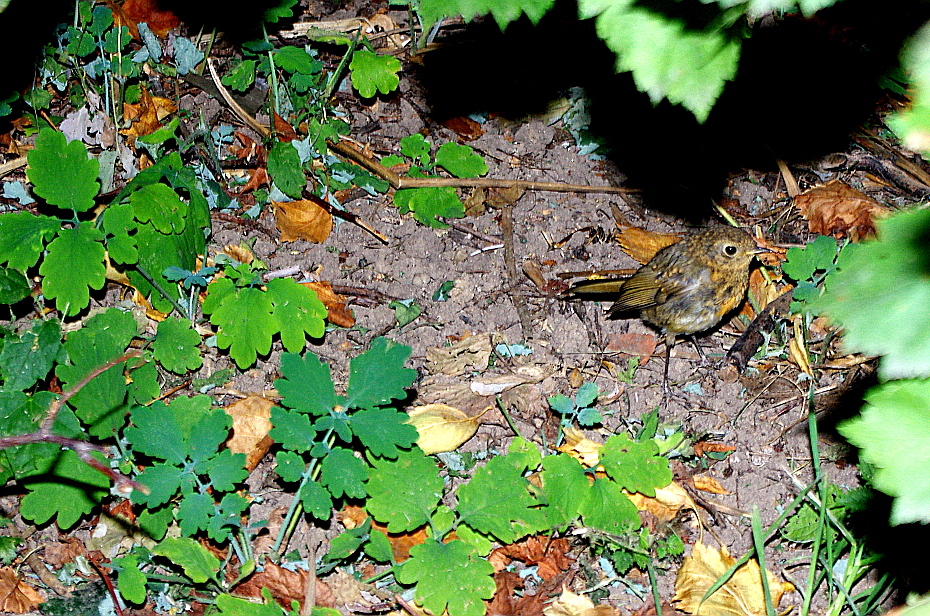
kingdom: Plantae
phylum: Tracheophyta
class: Magnoliopsida
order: Ranunculales
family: Papaveraceae
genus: Chelidonium
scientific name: Chelidonium majus
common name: Greater celandine
